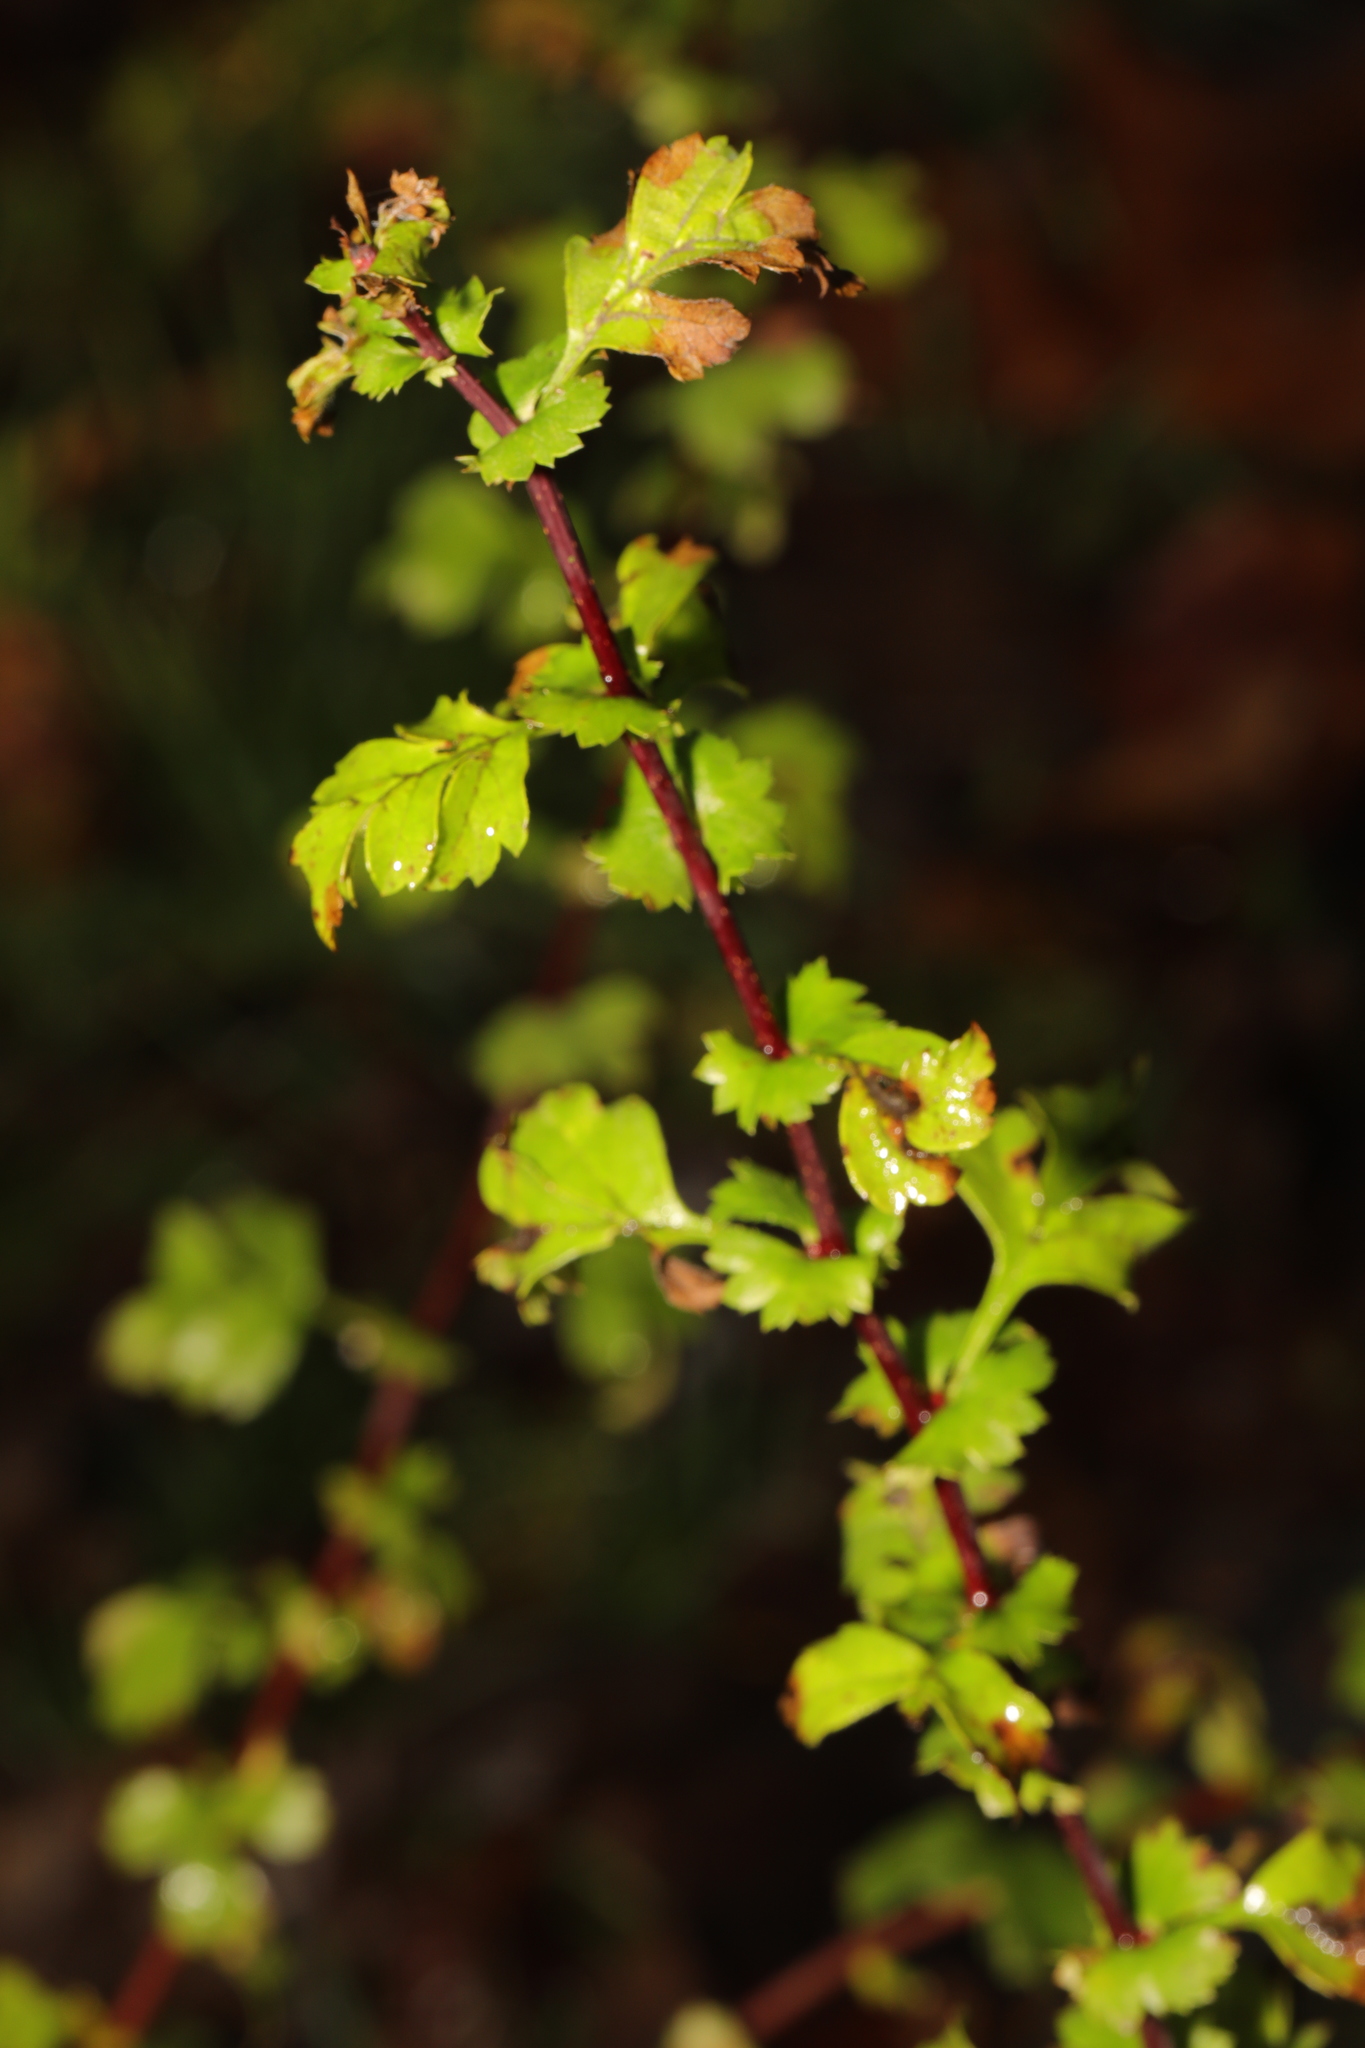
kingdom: Plantae
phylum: Tracheophyta
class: Magnoliopsida
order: Rosales
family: Rosaceae
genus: Crataegus
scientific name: Crataegus monogyna
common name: Hawthorn
